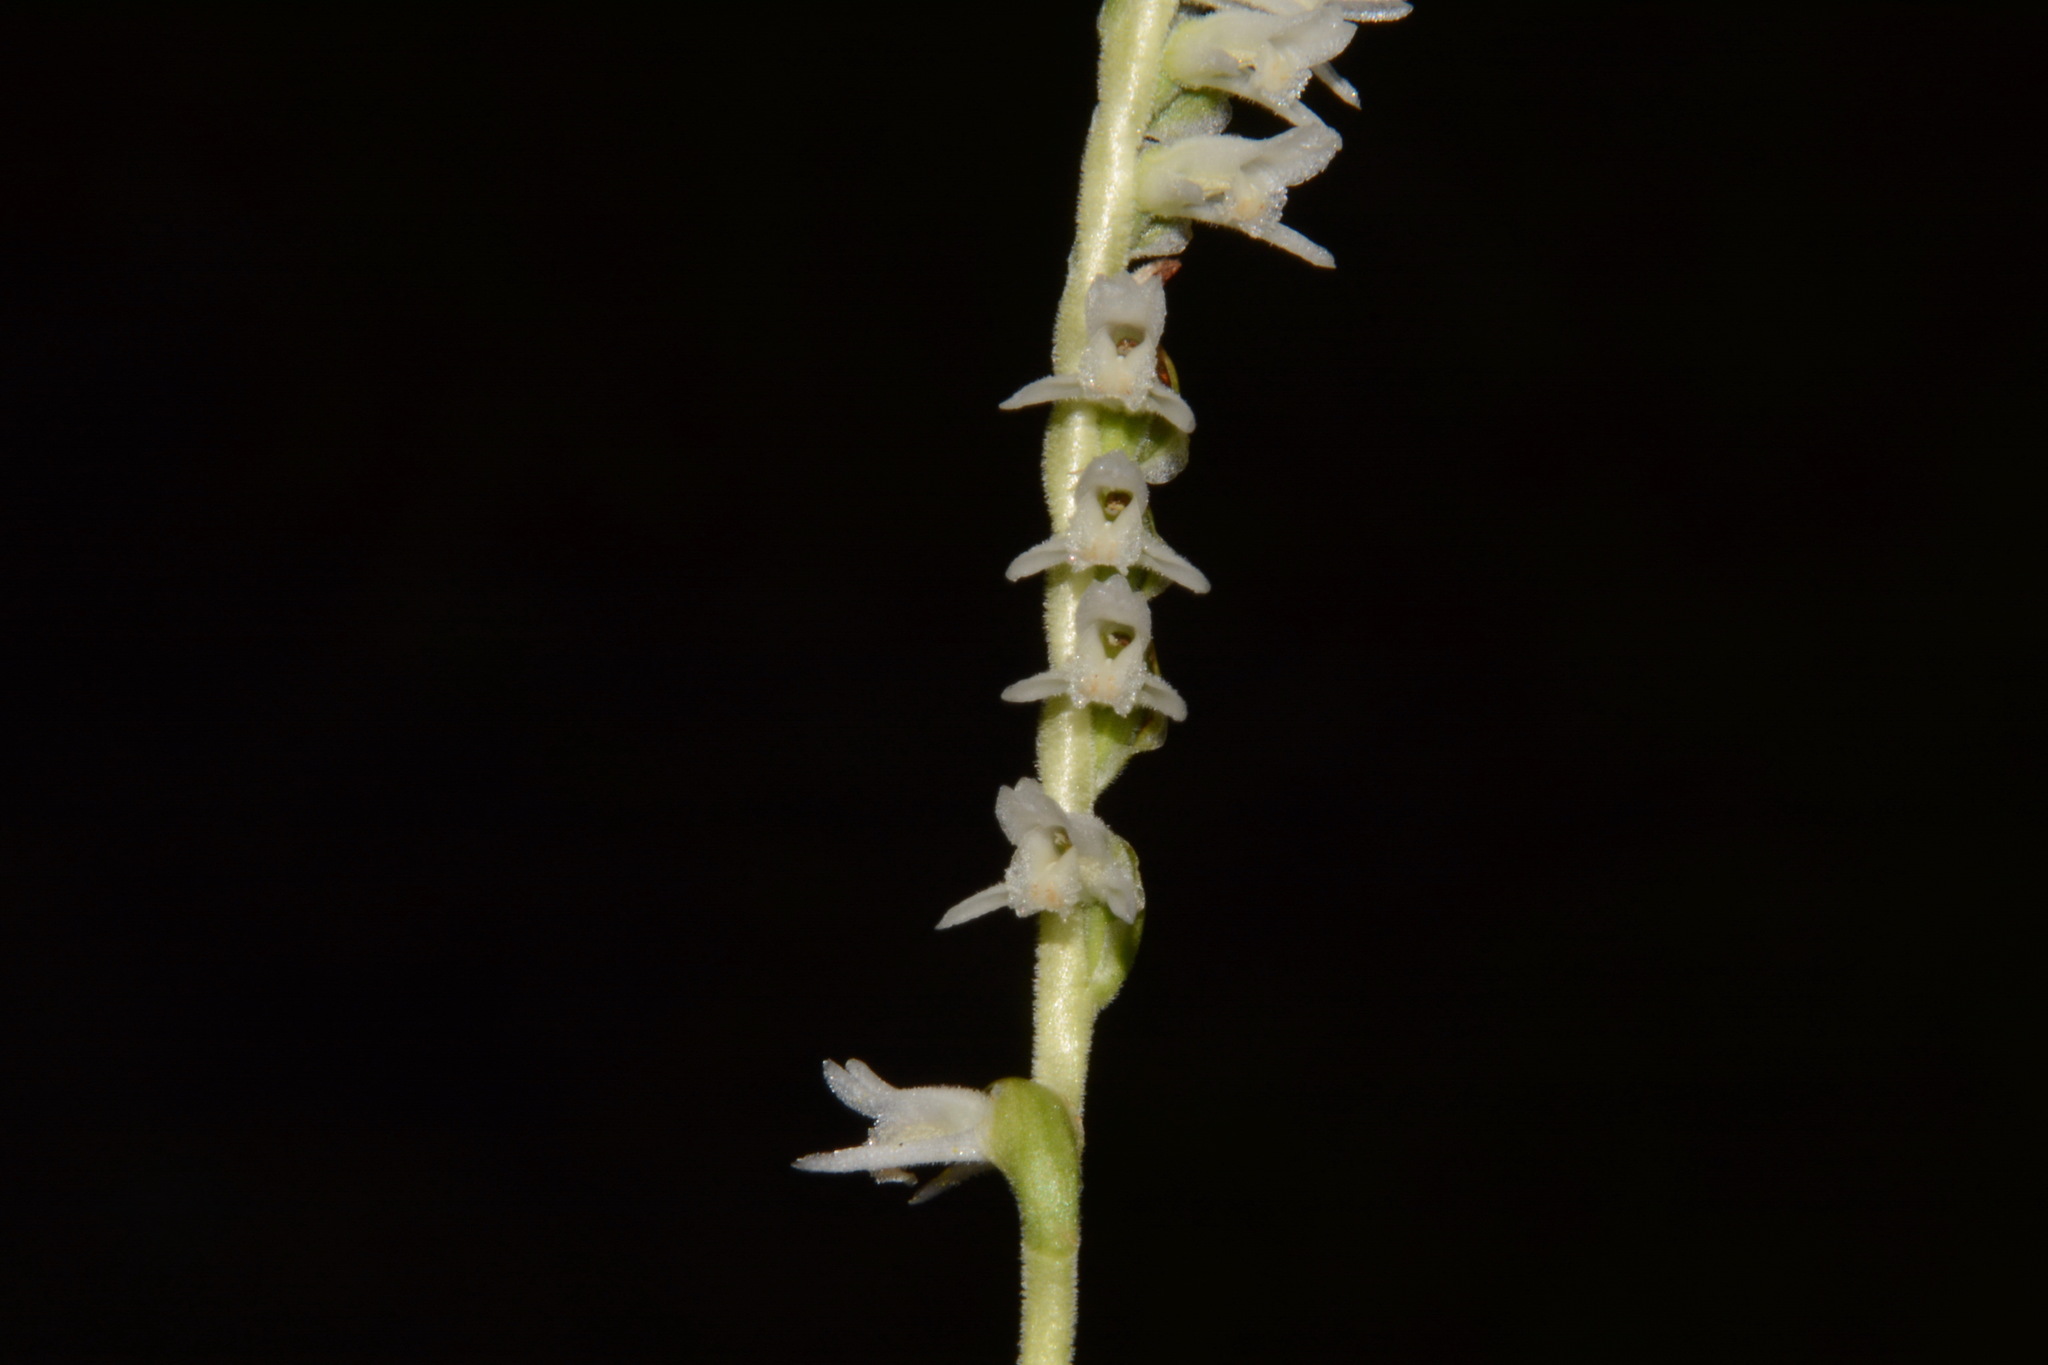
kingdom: Plantae
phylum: Tracheophyta
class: Liliopsida
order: Asparagales
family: Orchidaceae
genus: Spiranthes
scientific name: Spiranthes vernalis
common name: Spring ladies'-tresses
